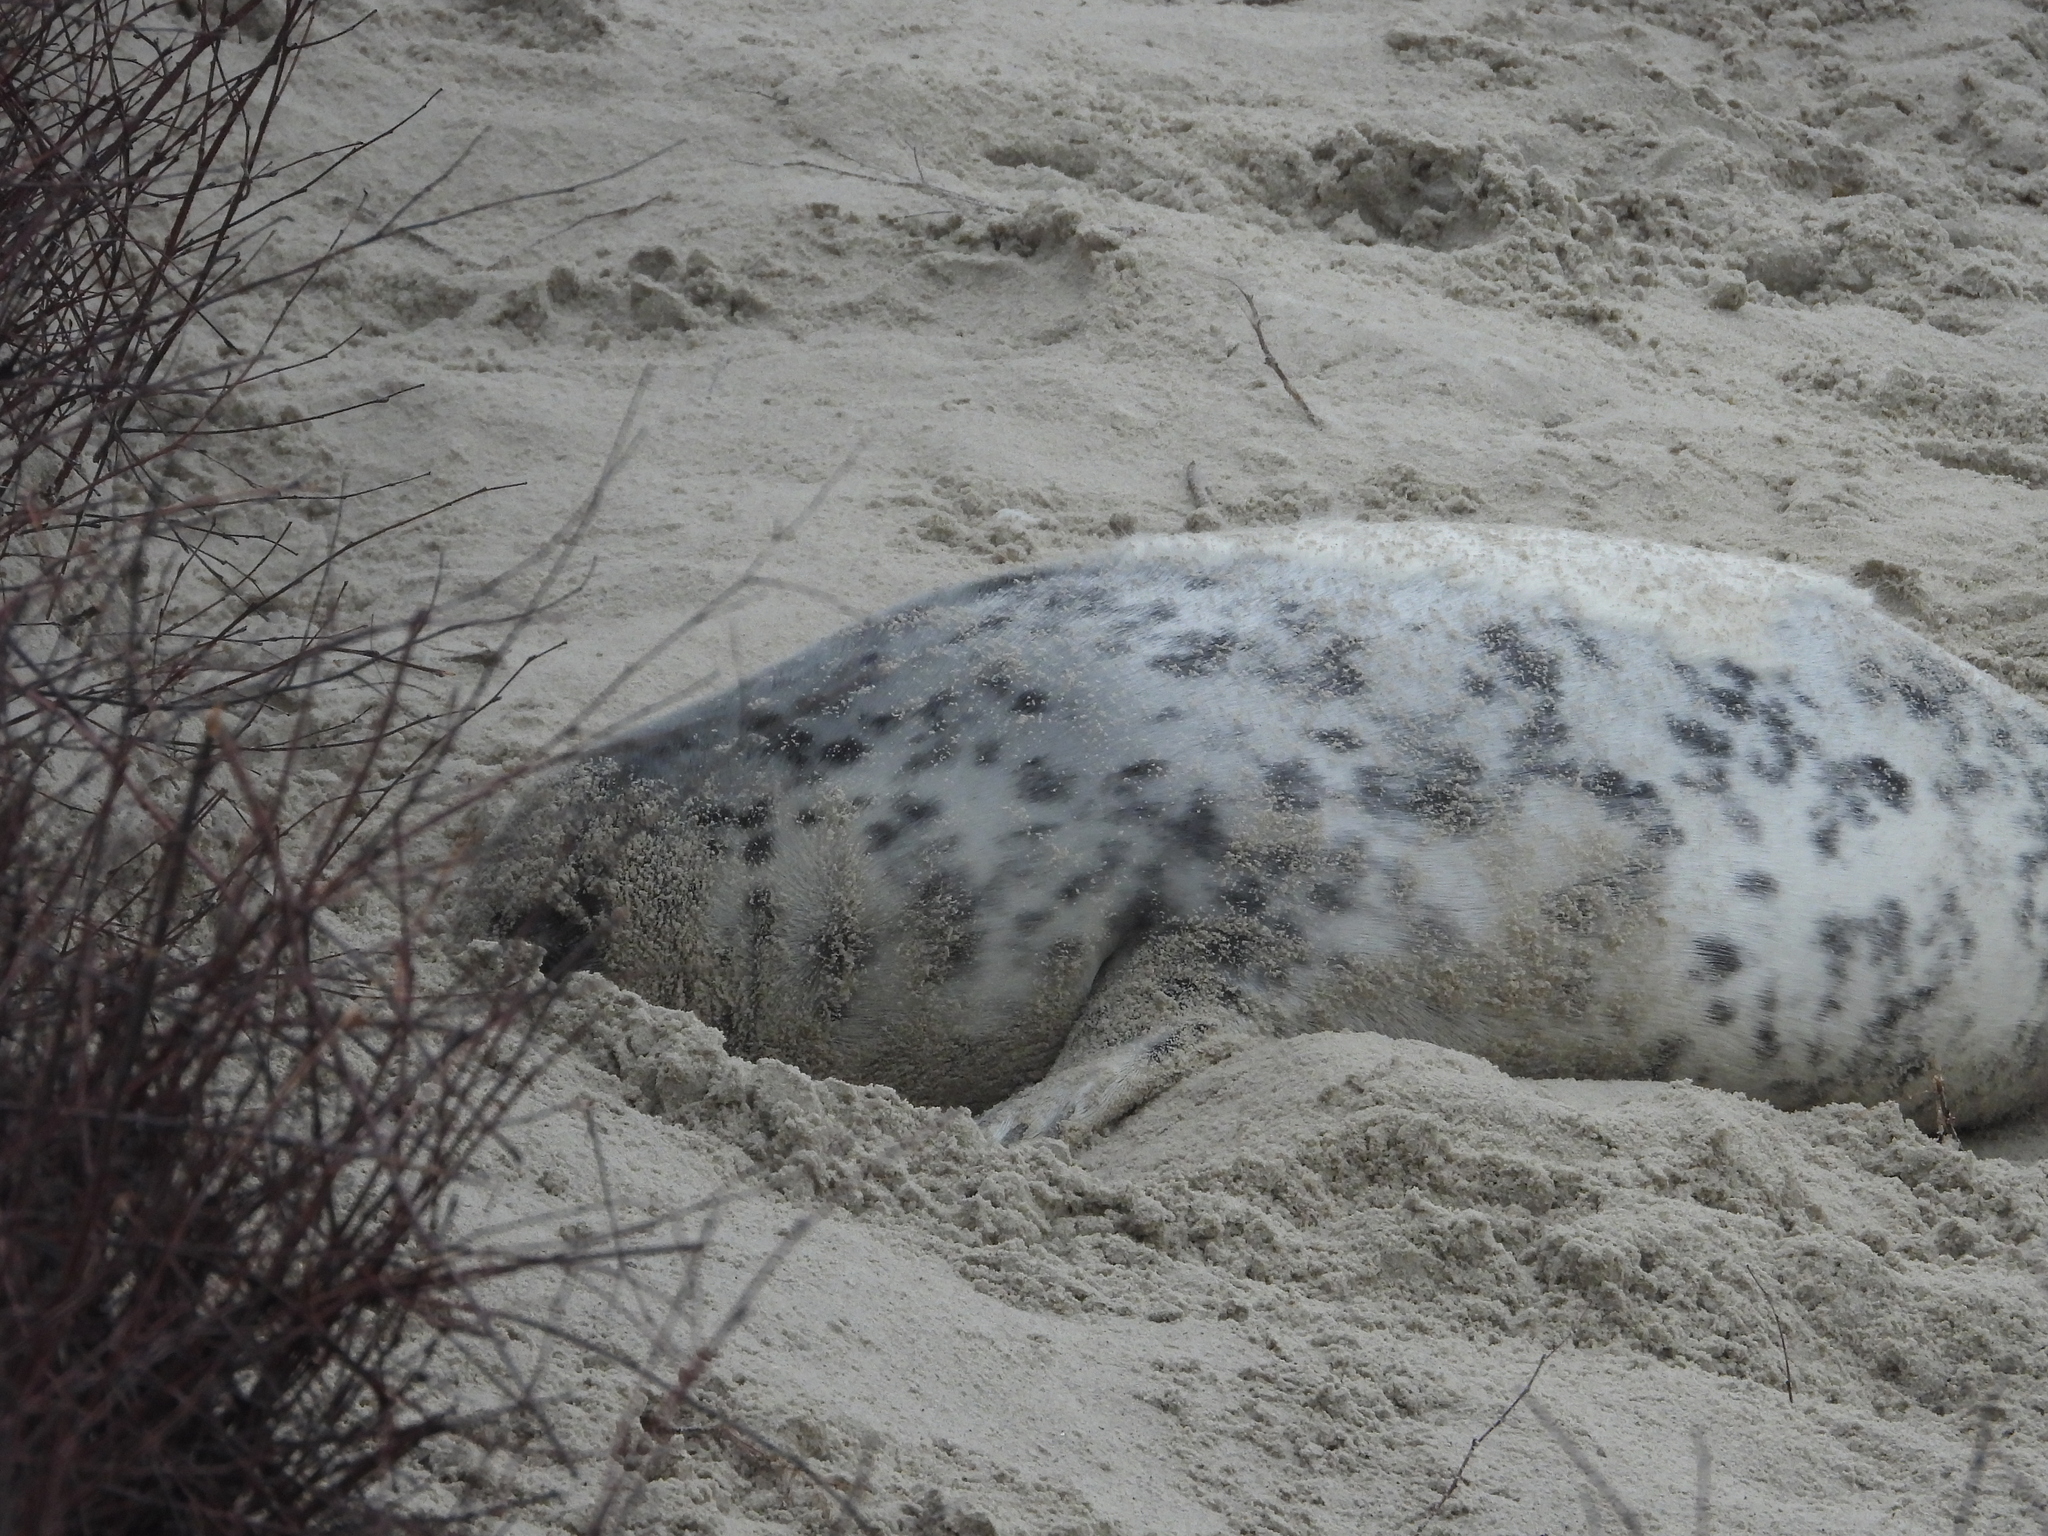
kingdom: Animalia
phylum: Chordata
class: Mammalia
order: Carnivora
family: Phocidae
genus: Halichoerus
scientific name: Halichoerus grypus
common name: Grey seal
